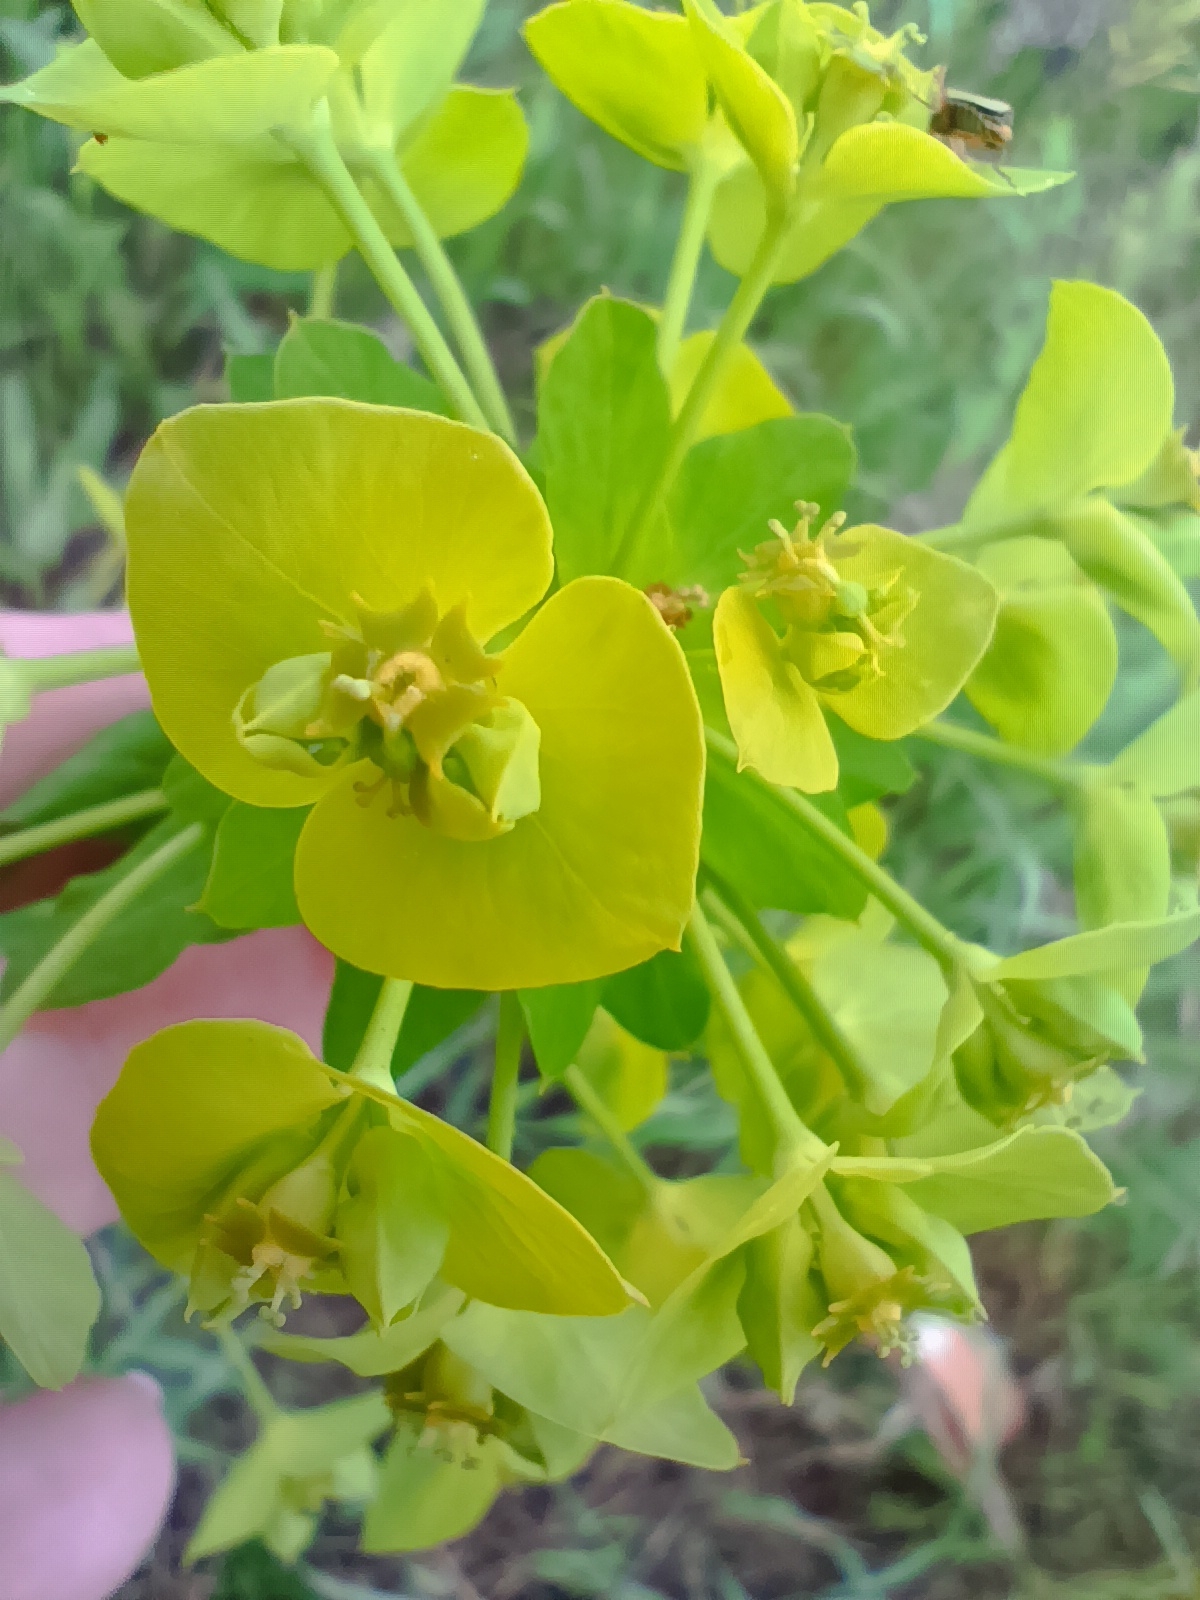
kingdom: Plantae
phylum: Tracheophyta
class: Magnoliopsida
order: Malpighiales
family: Euphorbiaceae
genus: Euphorbia
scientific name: Euphorbia virgata
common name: Leafy spurge
